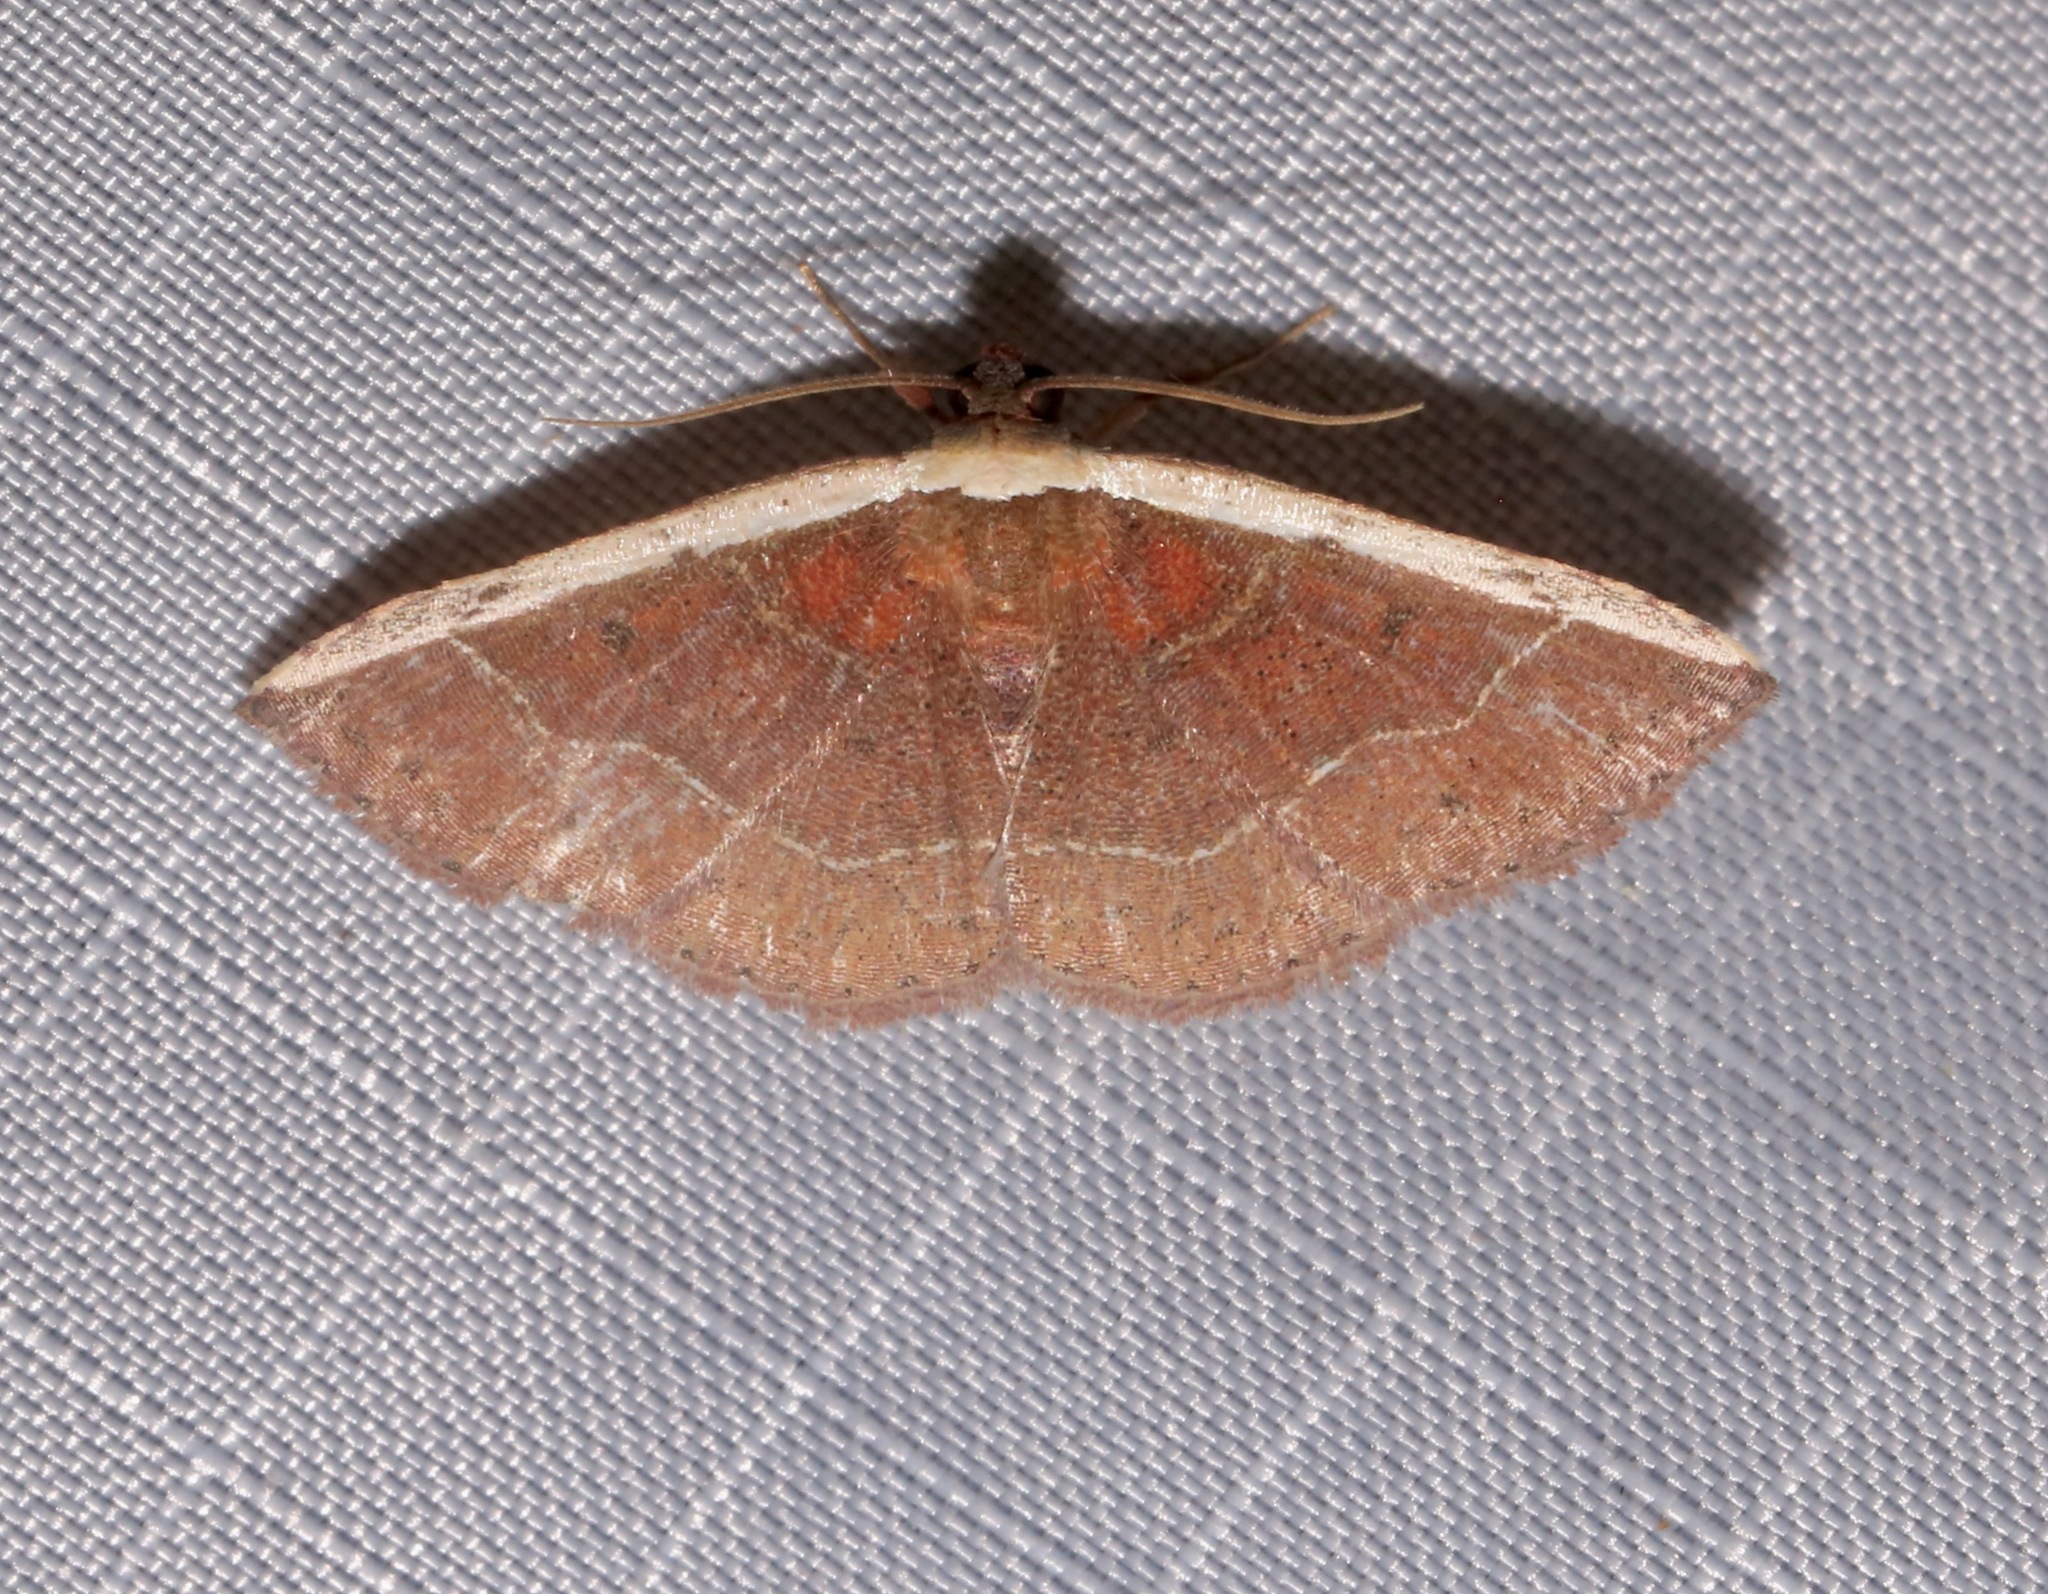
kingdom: Animalia
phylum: Arthropoda
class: Insecta
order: Lepidoptera
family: Noctuidae
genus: Ozarba
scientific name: Ozarba albocostaliata
